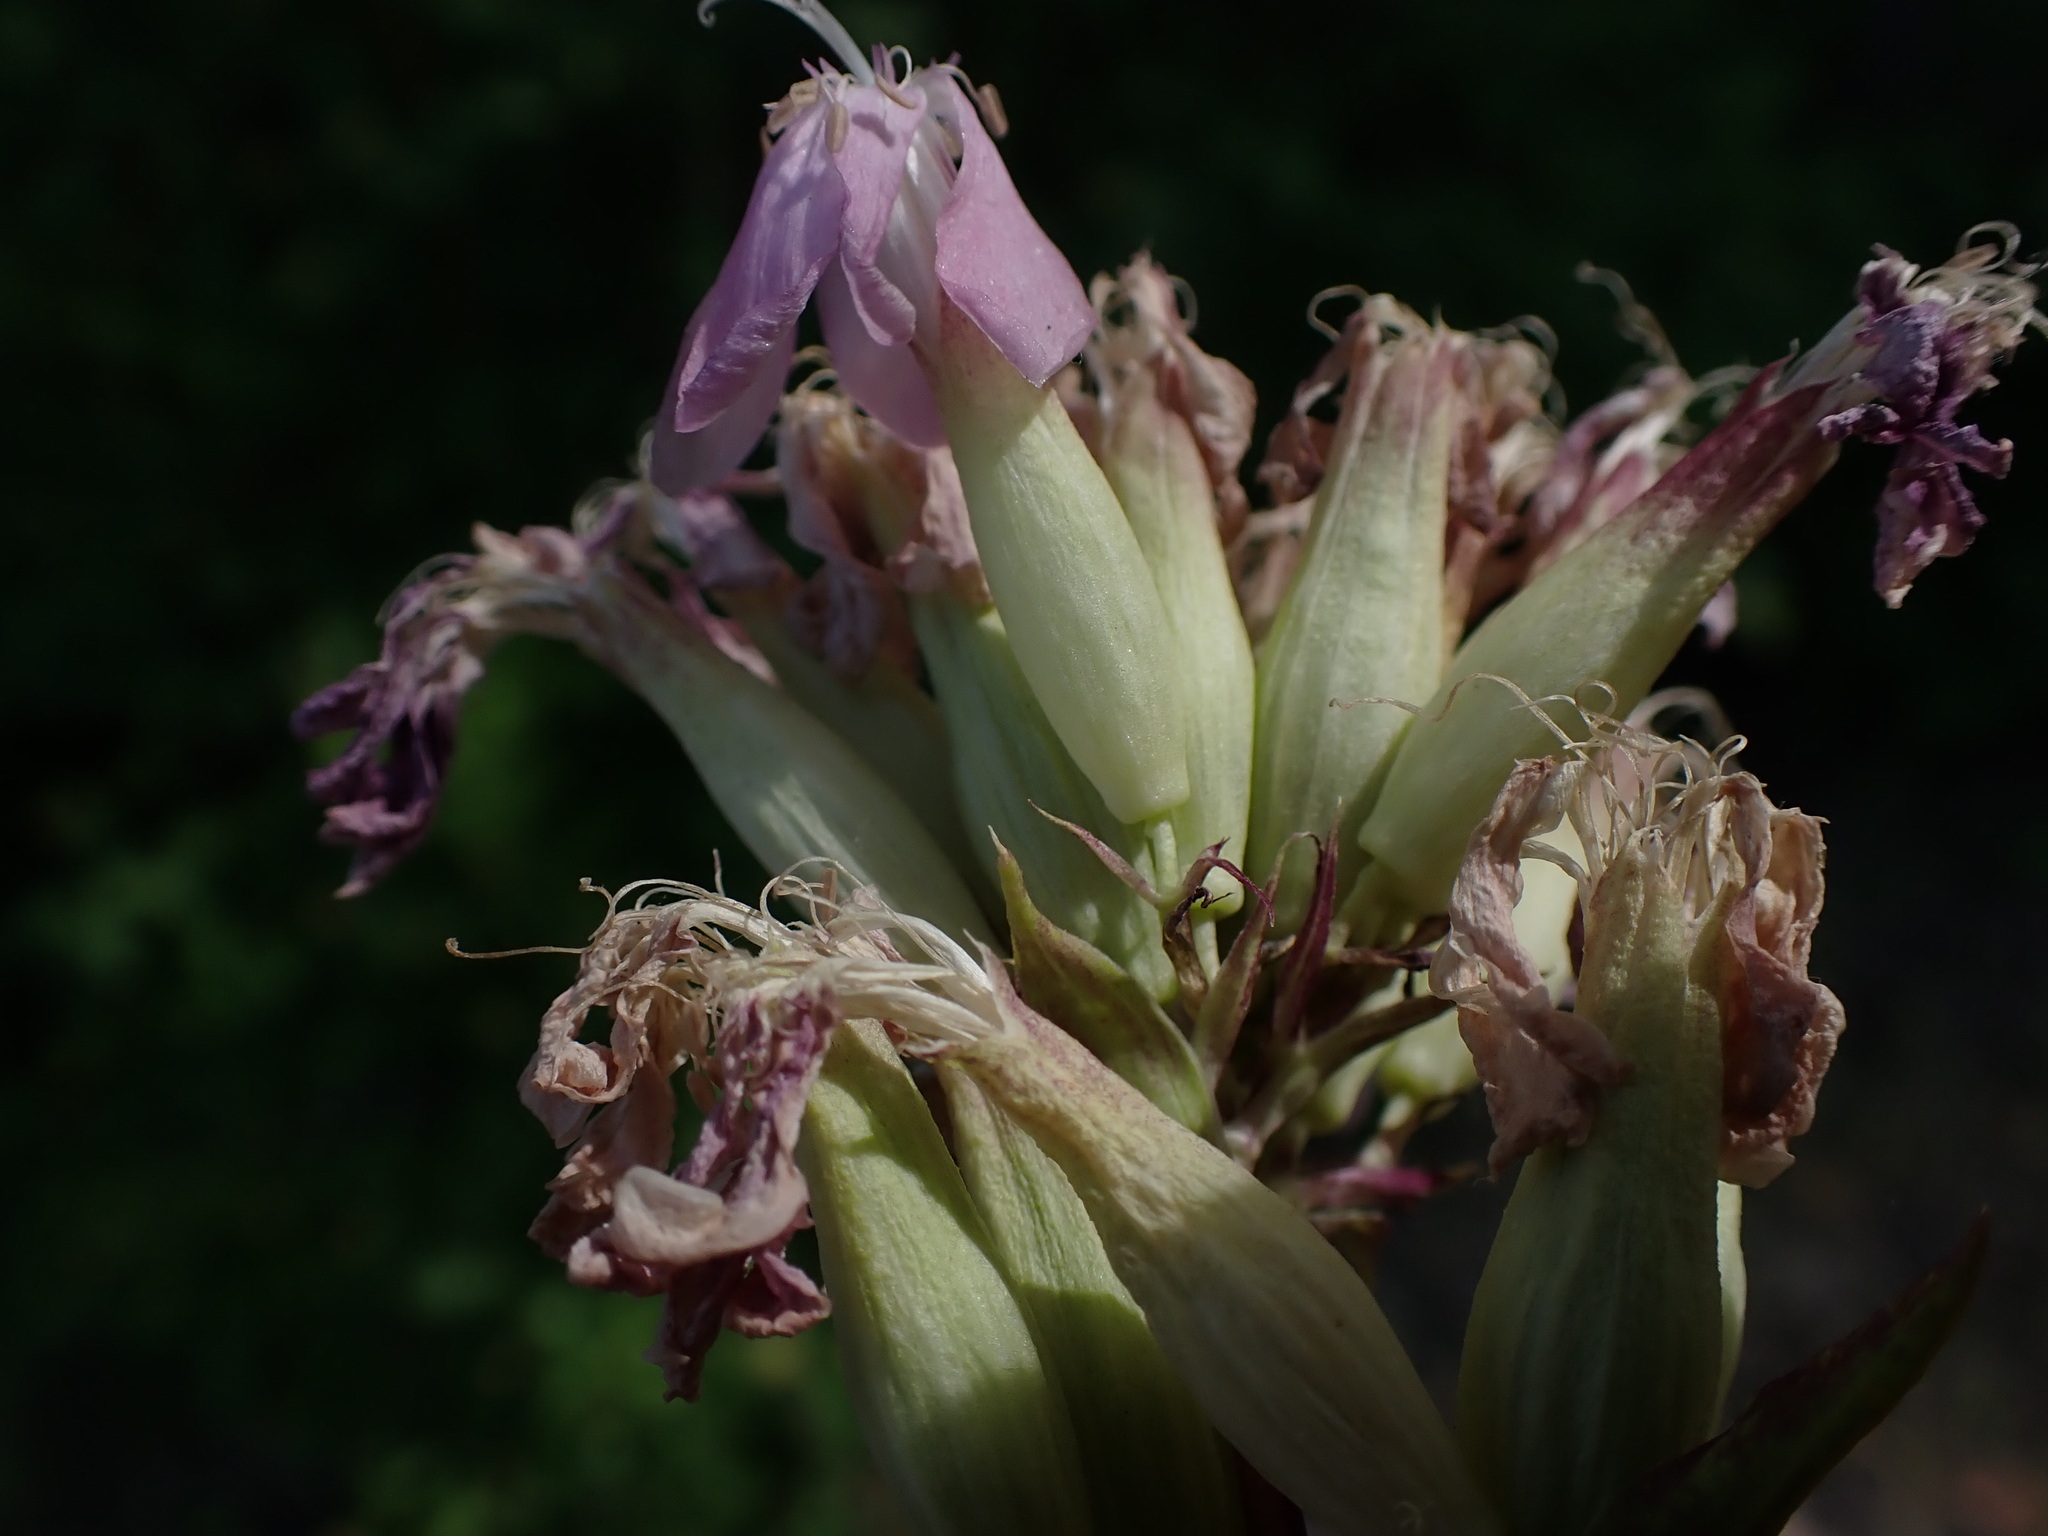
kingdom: Plantae
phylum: Tracheophyta
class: Magnoliopsida
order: Caryophyllales
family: Caryophyllaceae
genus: Saponaria
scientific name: Saponaria officinalis
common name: Soapwort
